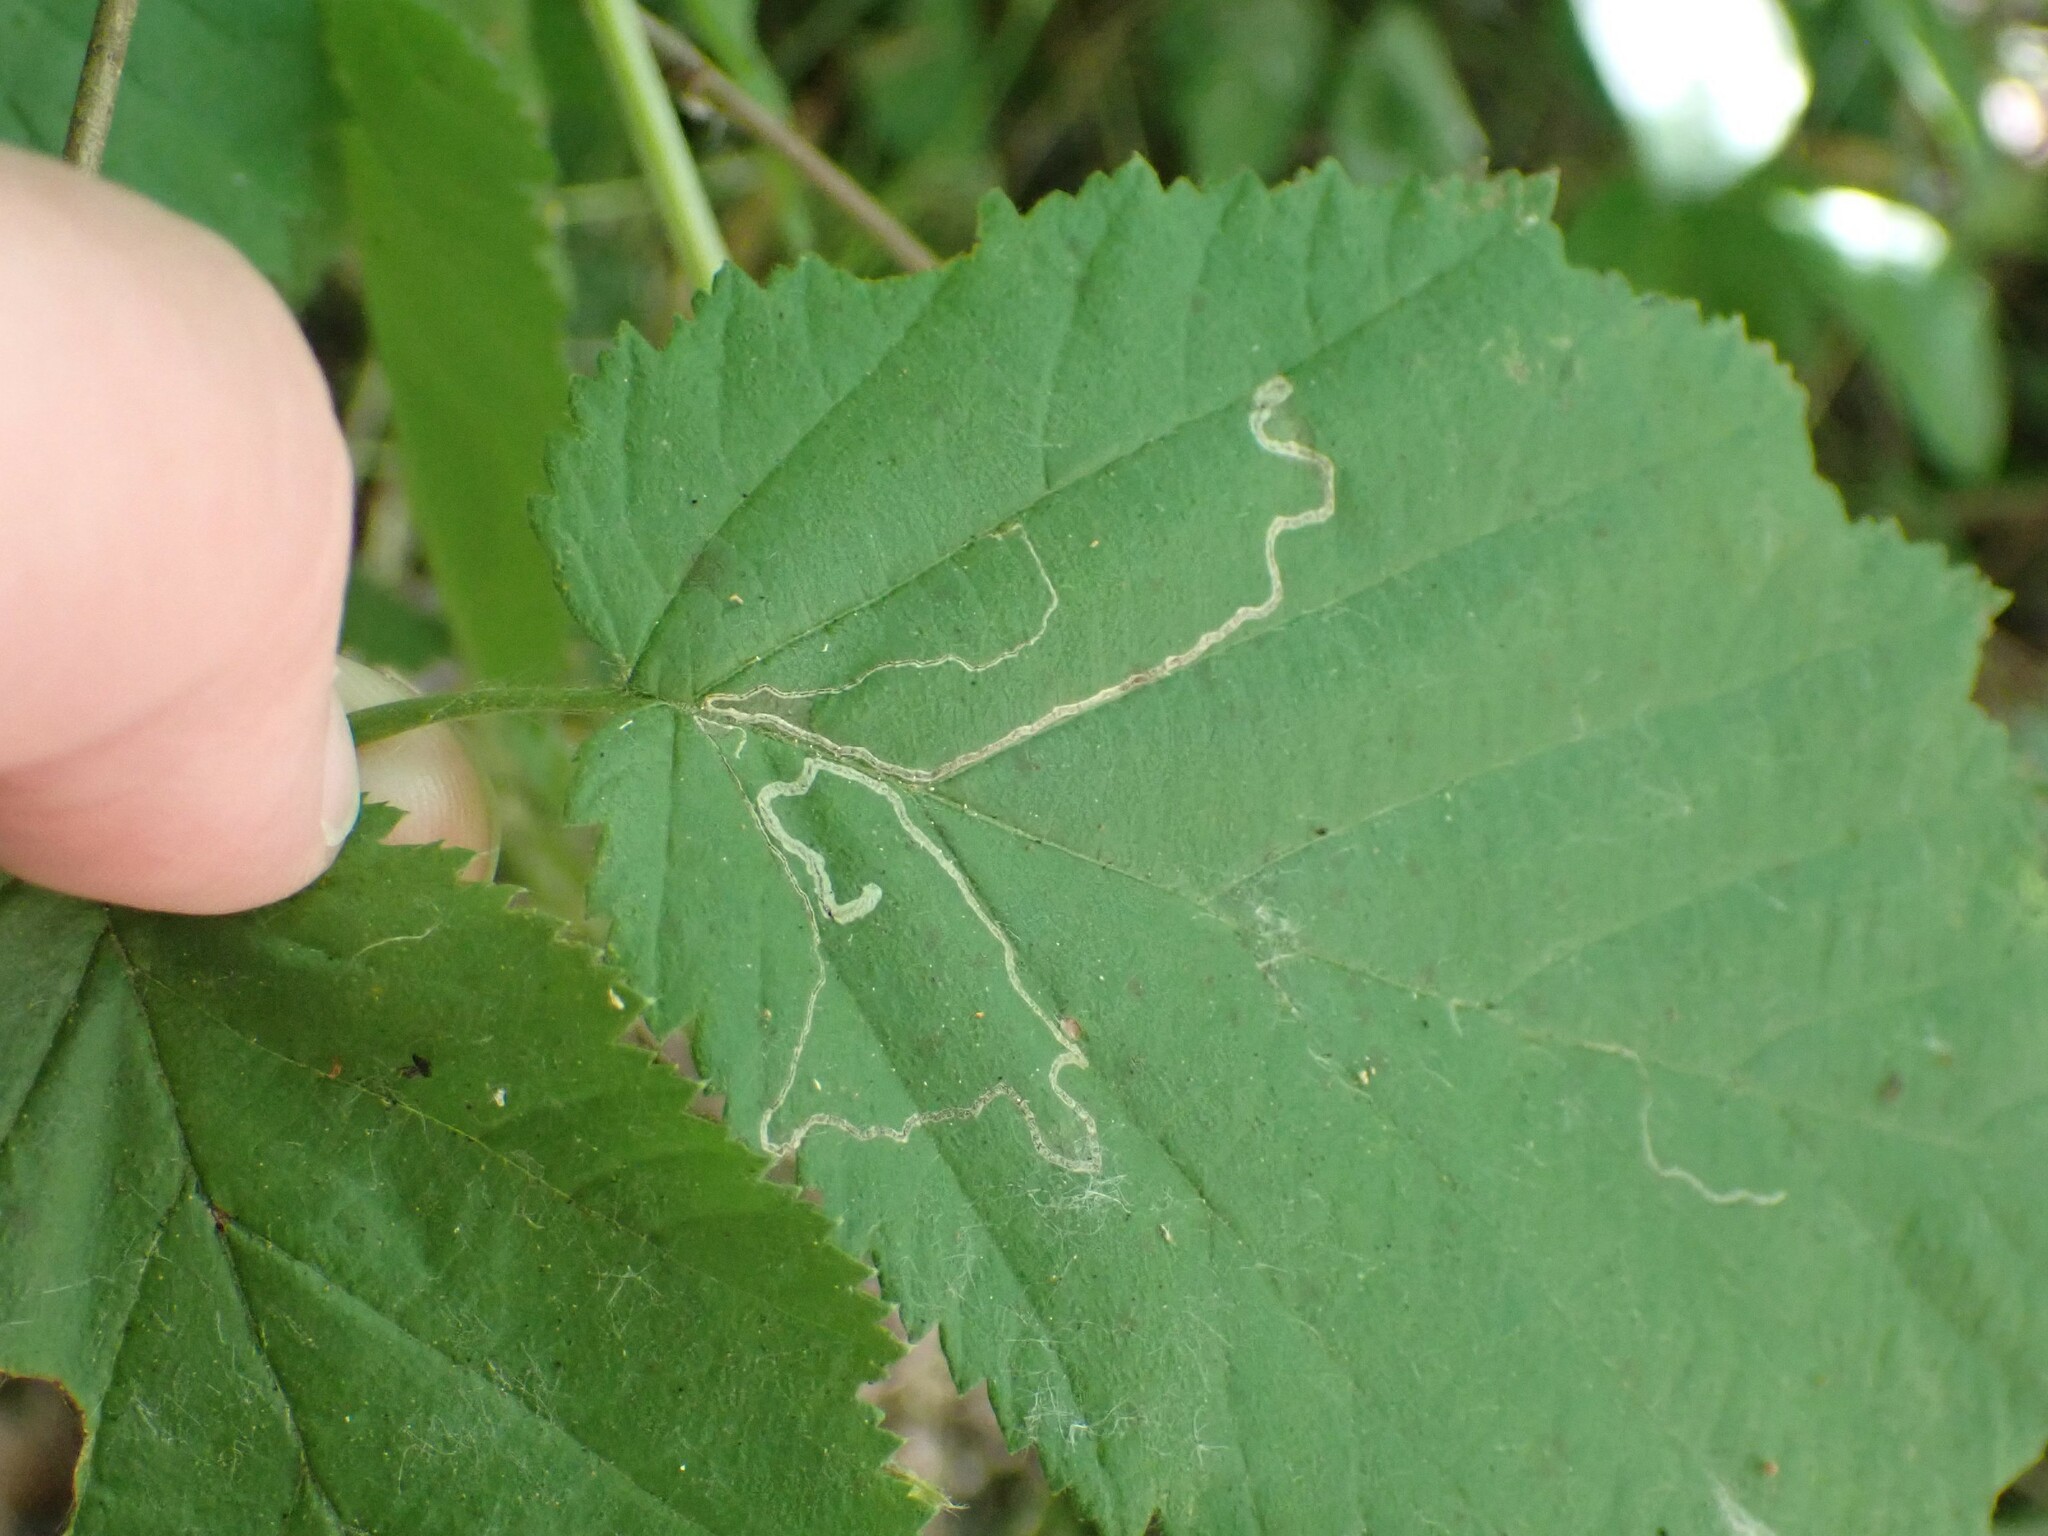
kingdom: Animalia
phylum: Arthropoda
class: Insecta
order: Lepidoptera
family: Nepticulidae
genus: Stigmella
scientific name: Stigmella microtheriella
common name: Nut-tree pigmy
